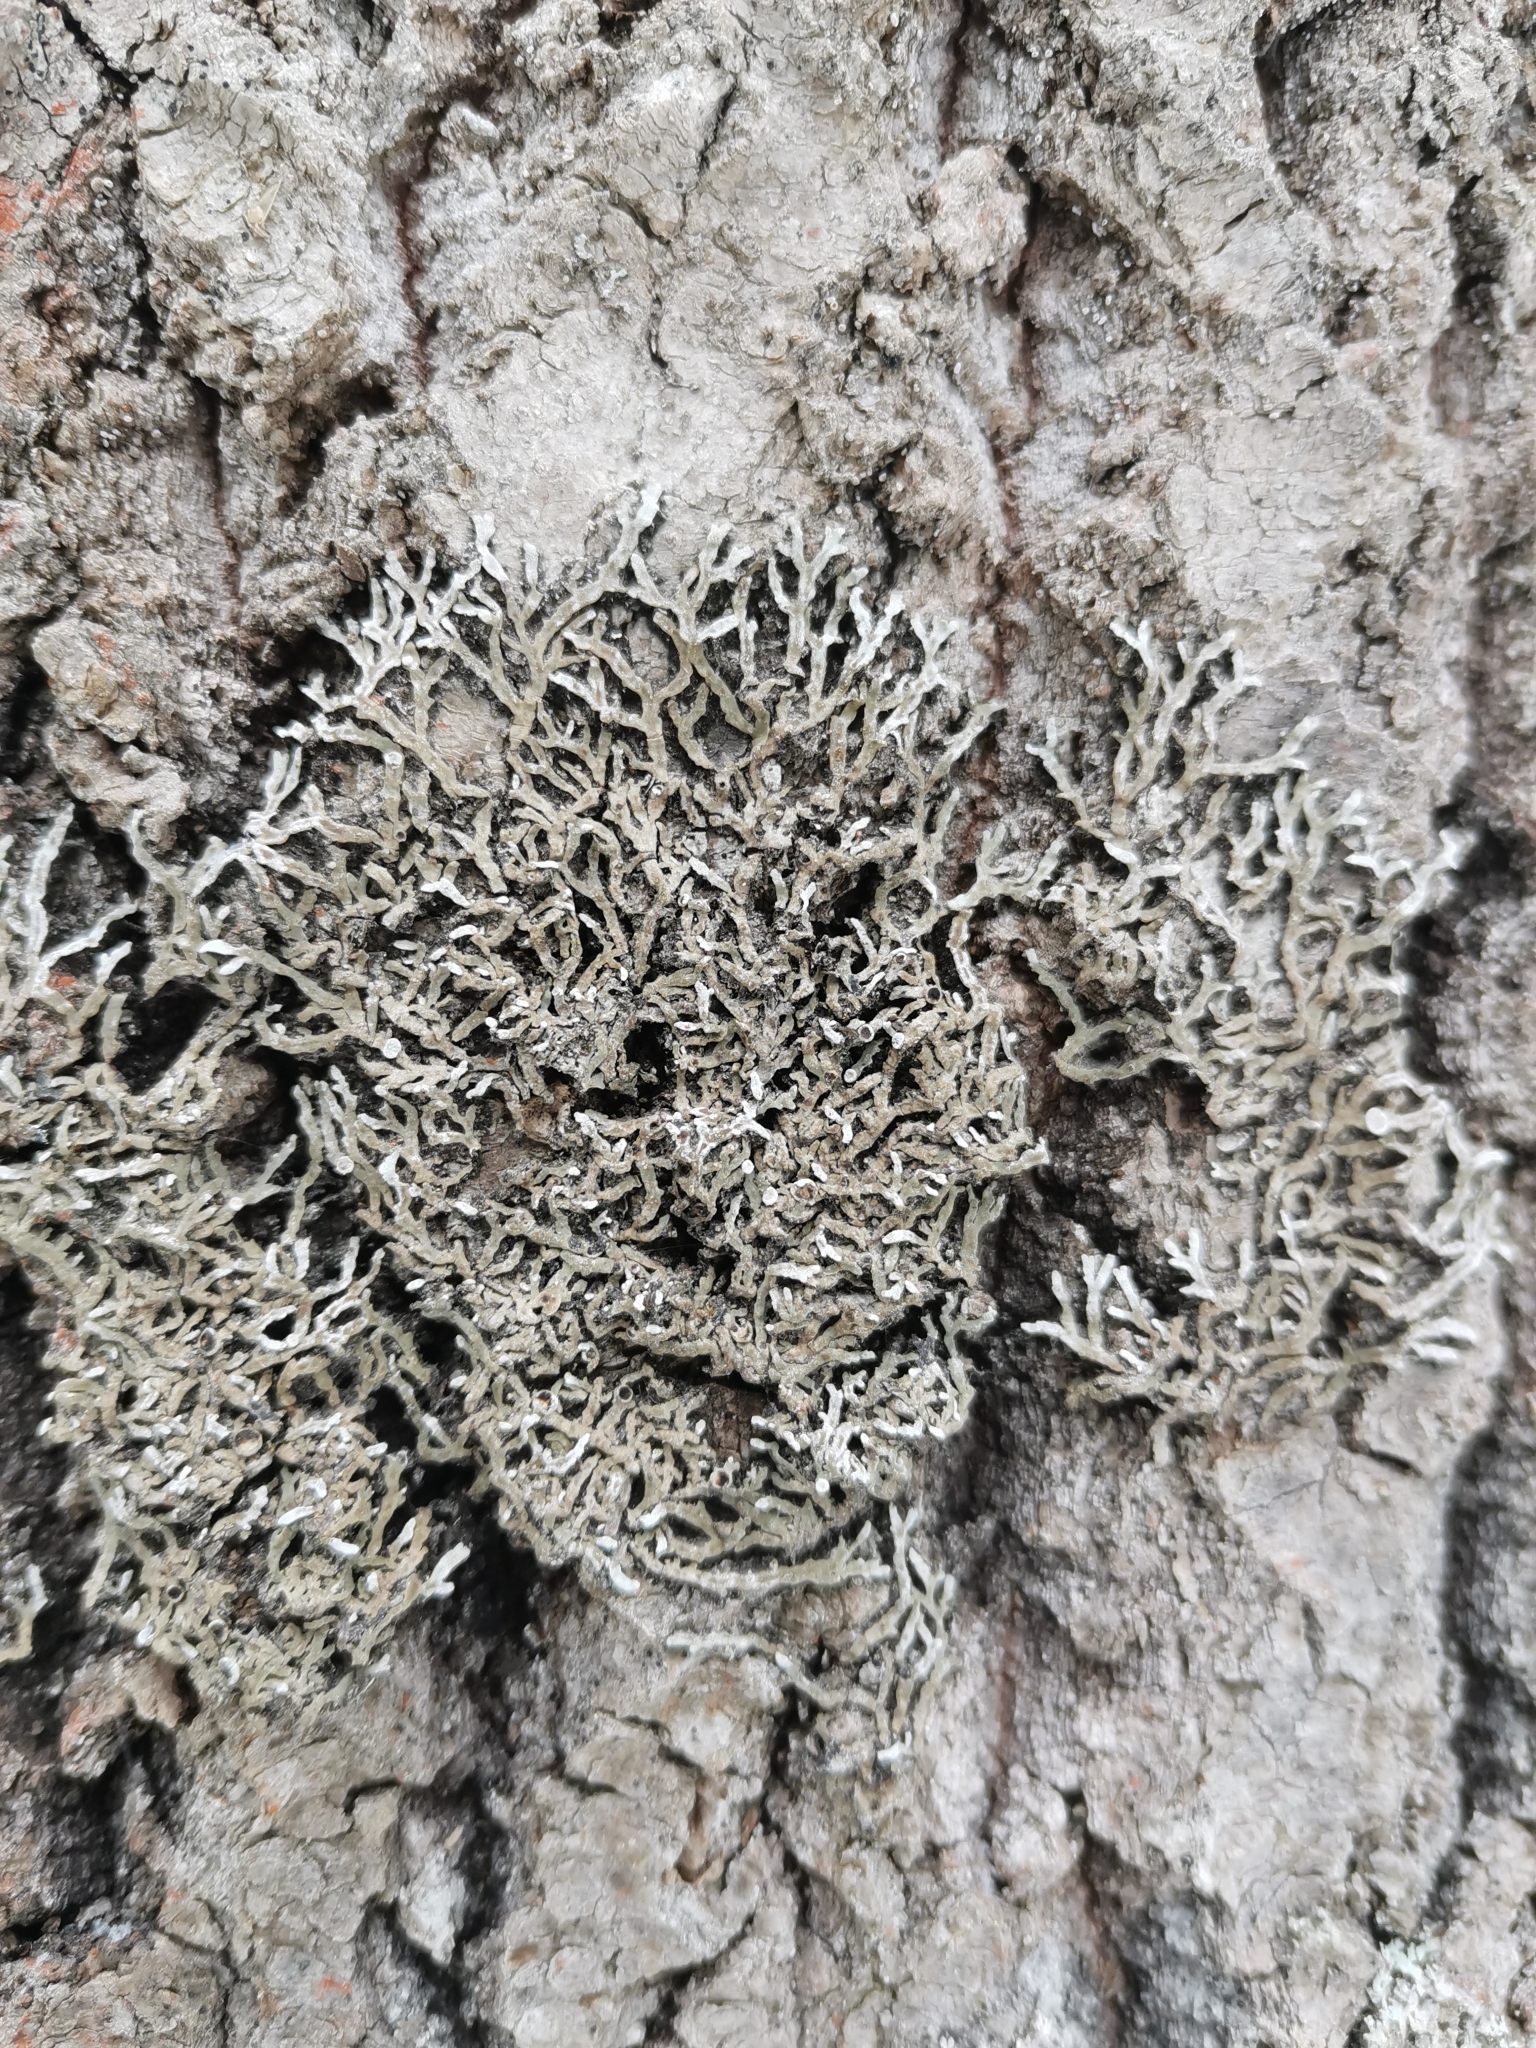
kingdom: Fungi
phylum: Ascomycota
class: Lecanoromycetes
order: Caliciales
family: Physciaceae
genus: Physconia
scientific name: Physconia distorta
